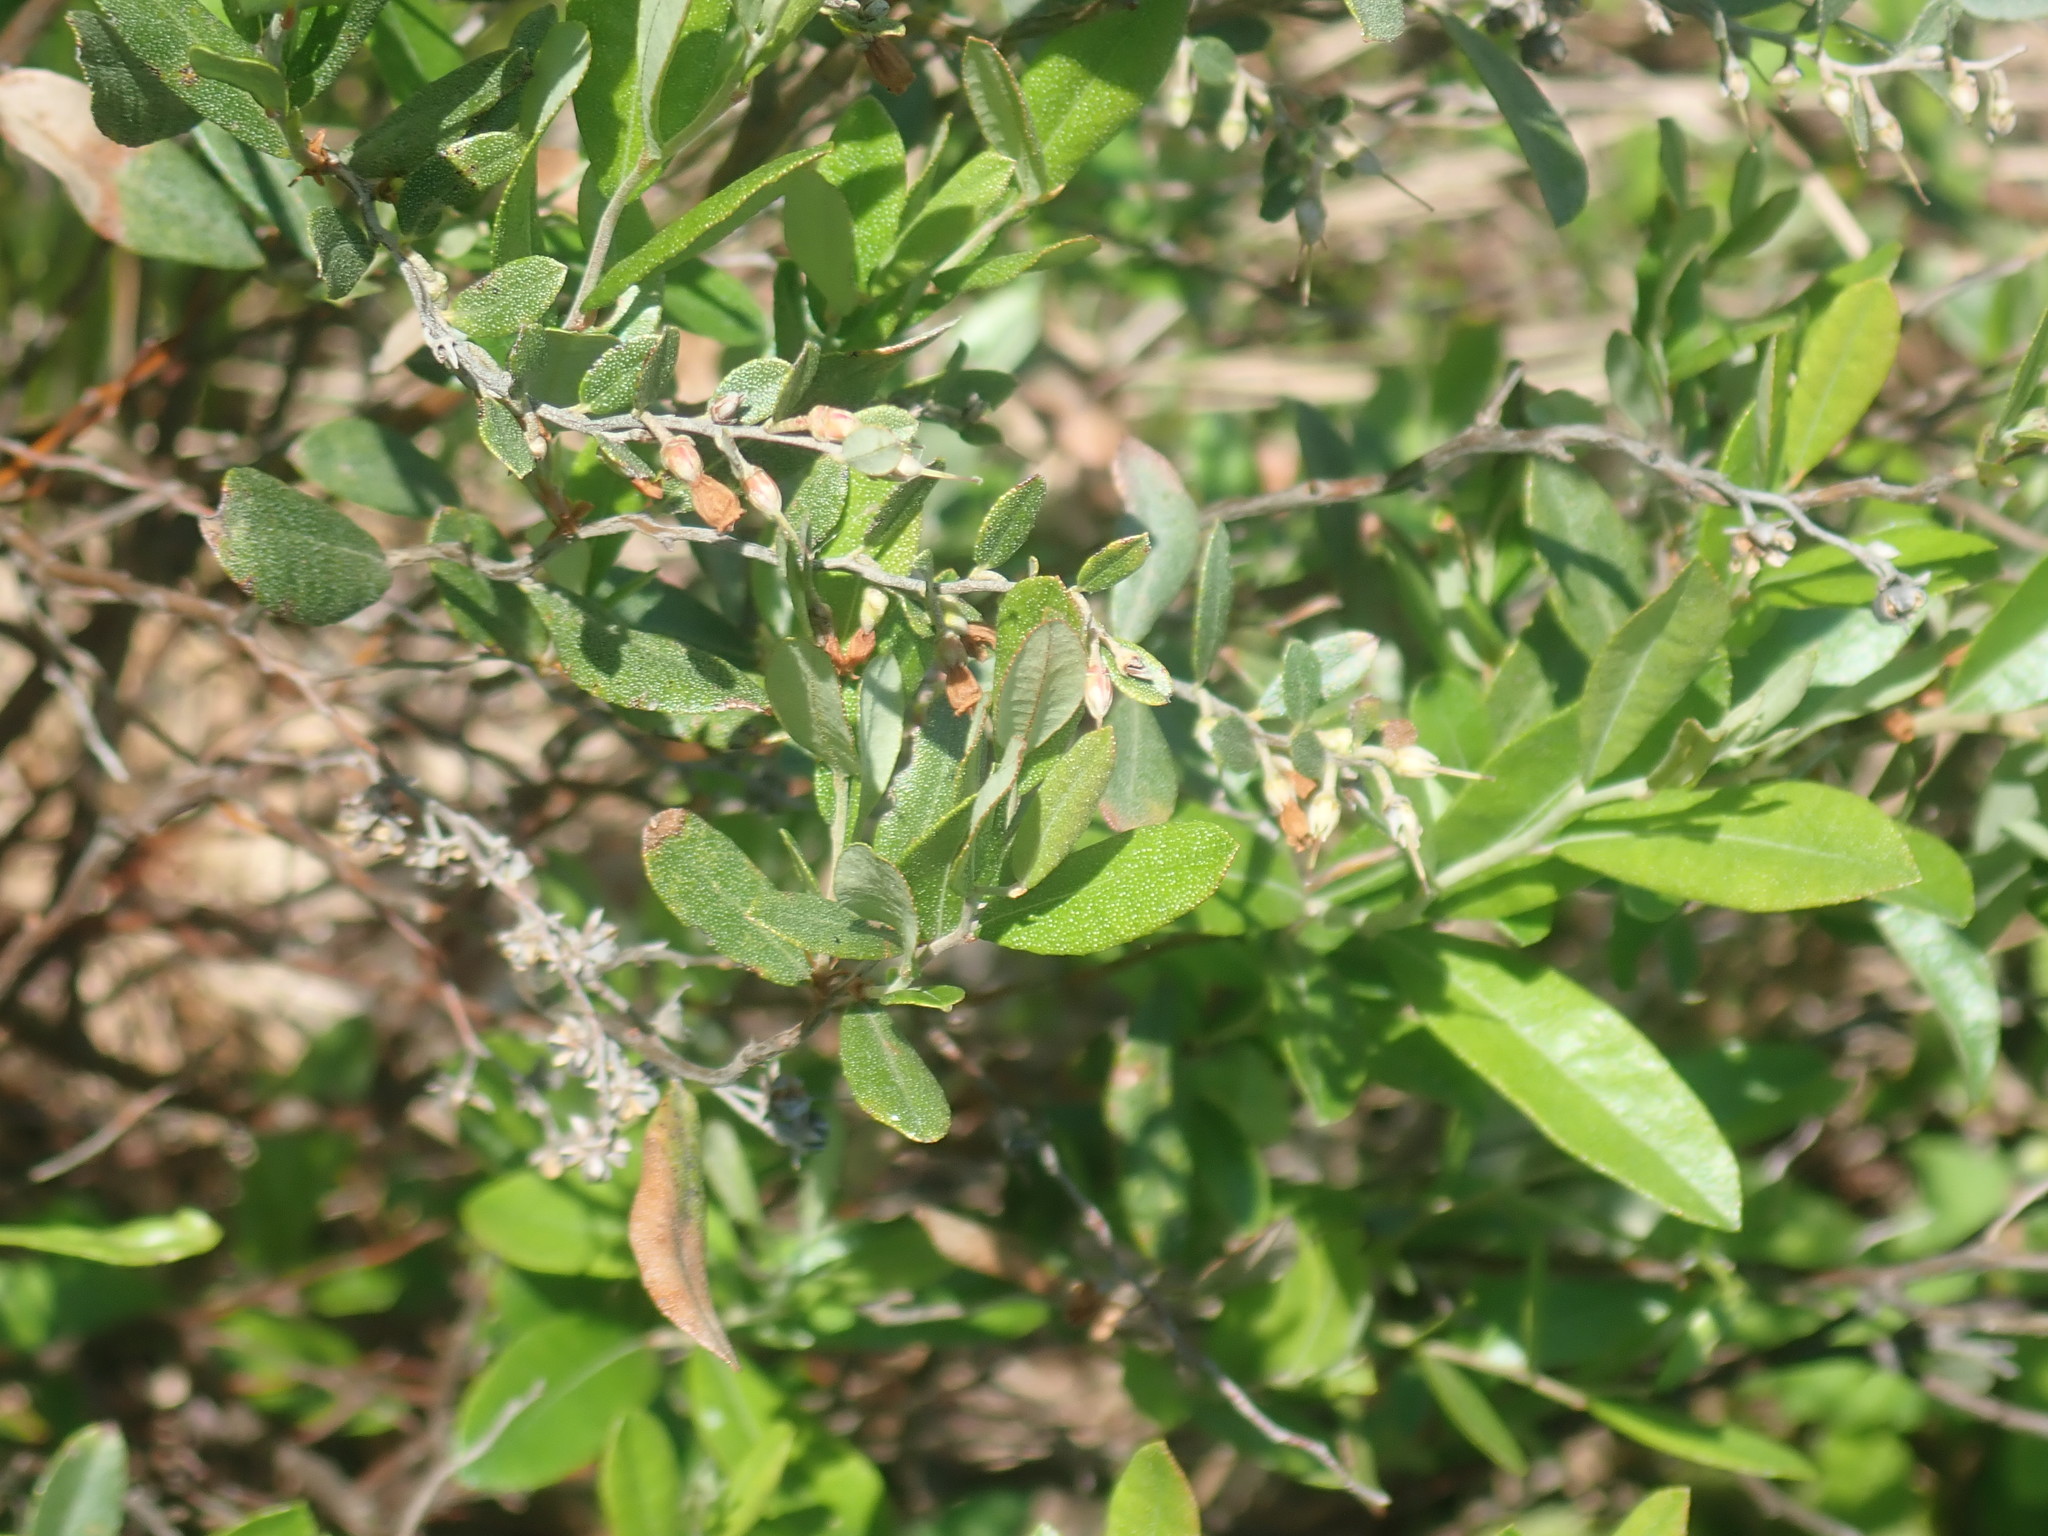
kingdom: Plantae
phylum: Tracheophyta
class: Magnoliopsida
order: Ericales
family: Ericaceae
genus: Chamaedaphne
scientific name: Chamaedaphne calyculata
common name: Leatherleaf
